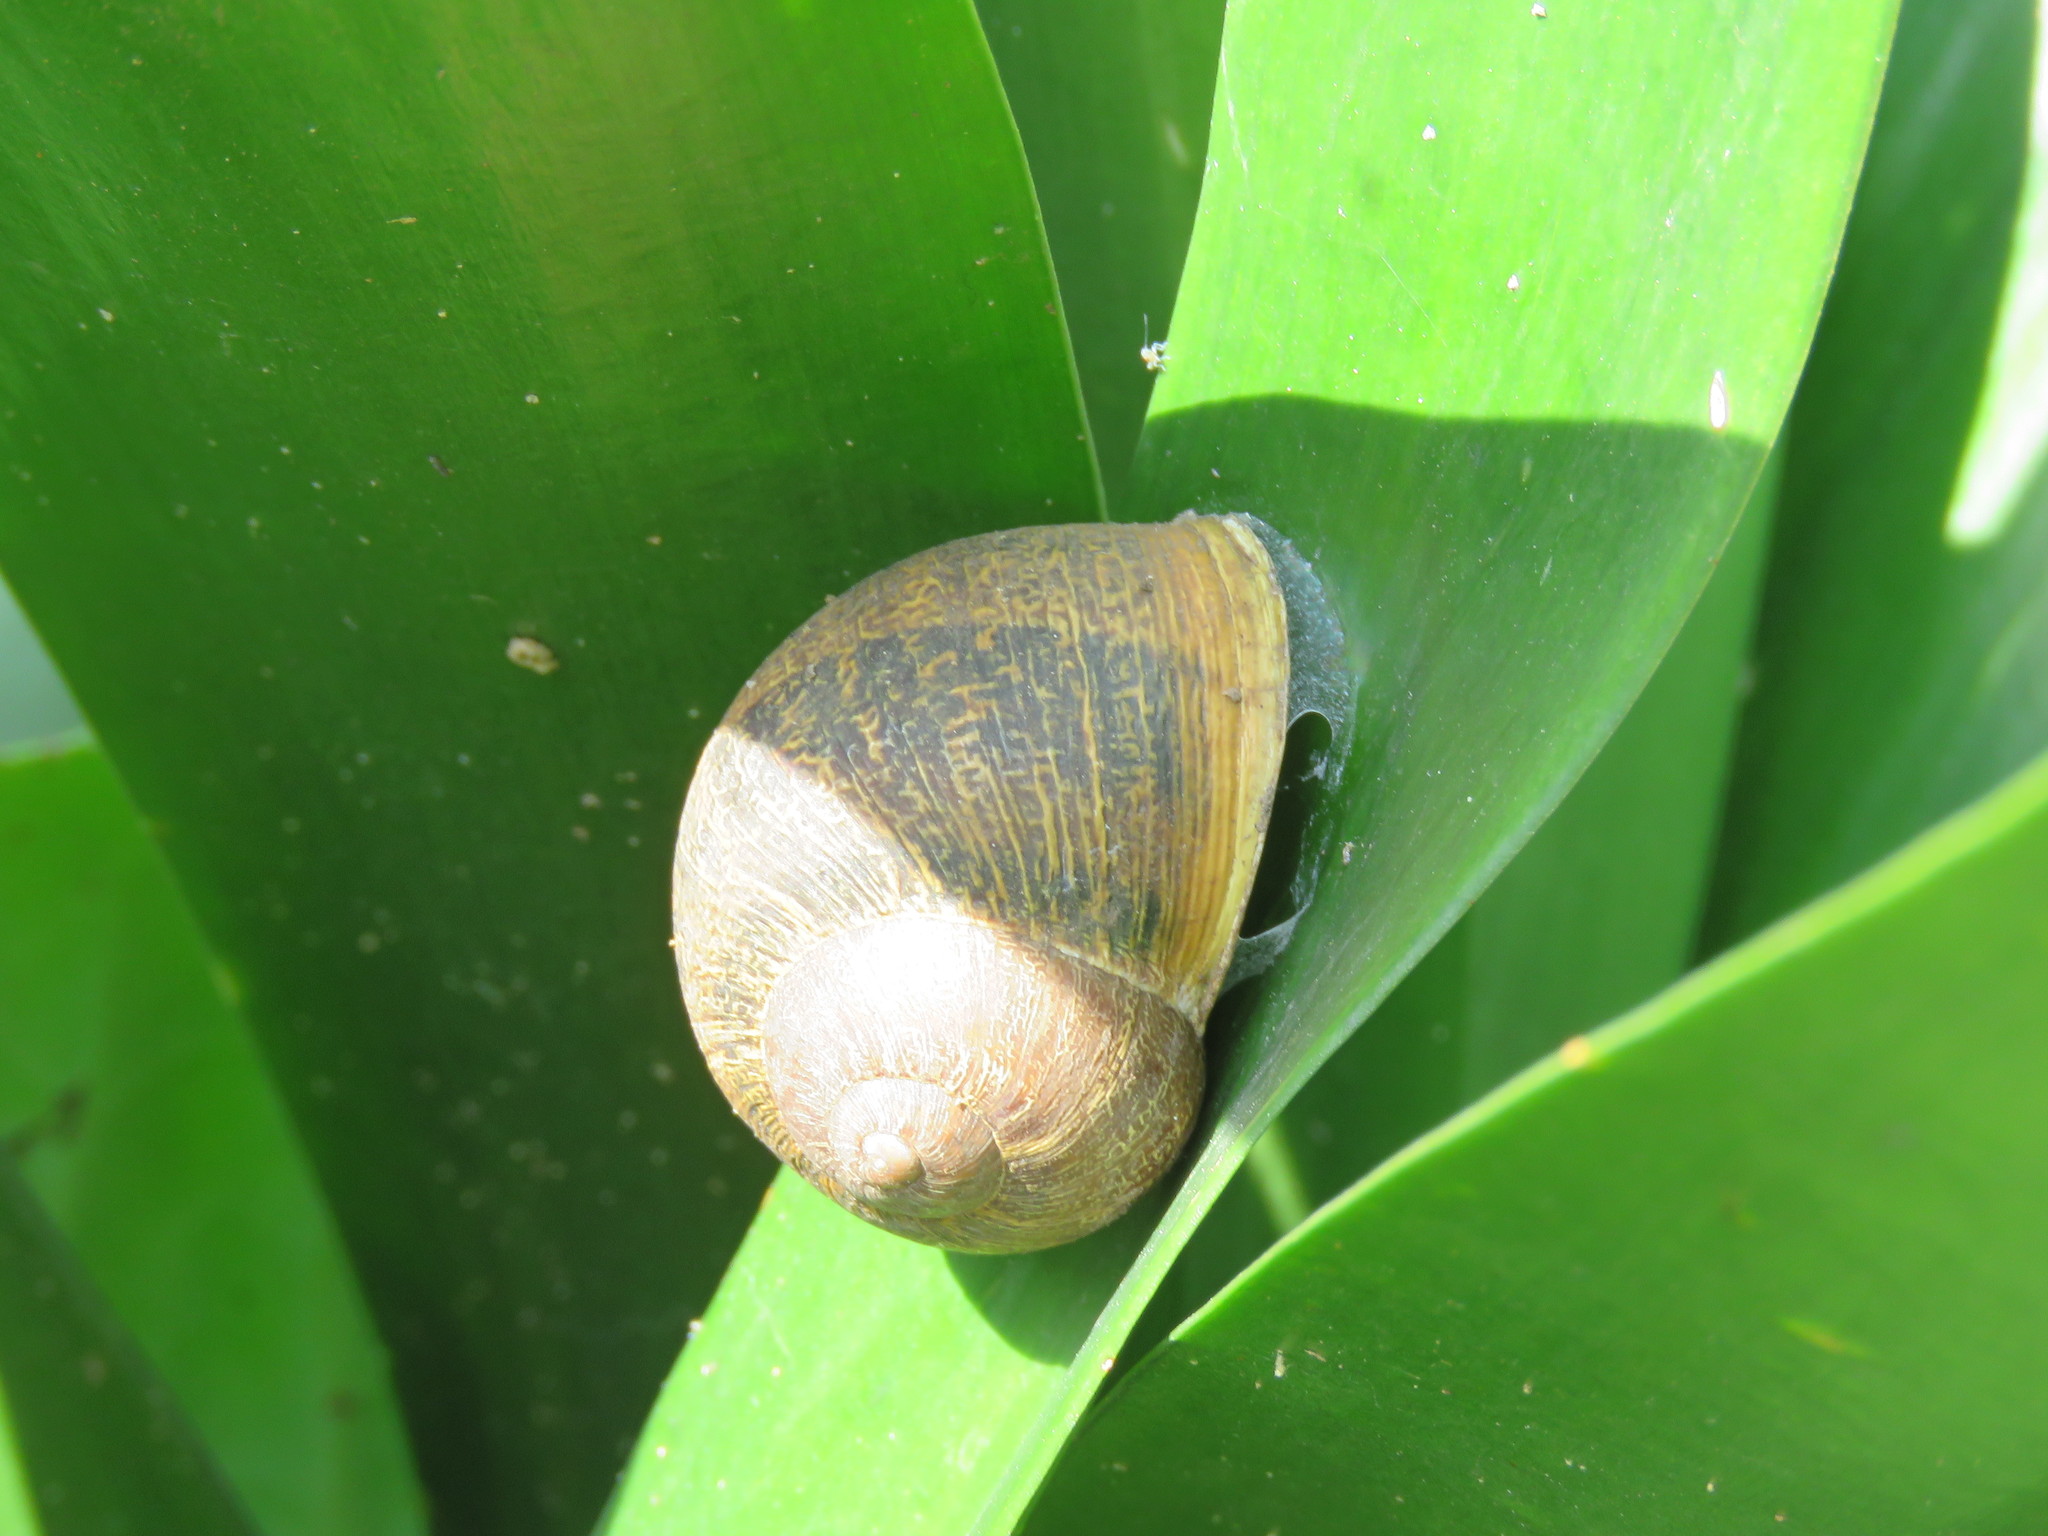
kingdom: Animalia
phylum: Mollusca
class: Gastropoda
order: Stylommatophora
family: Helicidae
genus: Cornu
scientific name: Cornu aspersum
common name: Brown garden snail
